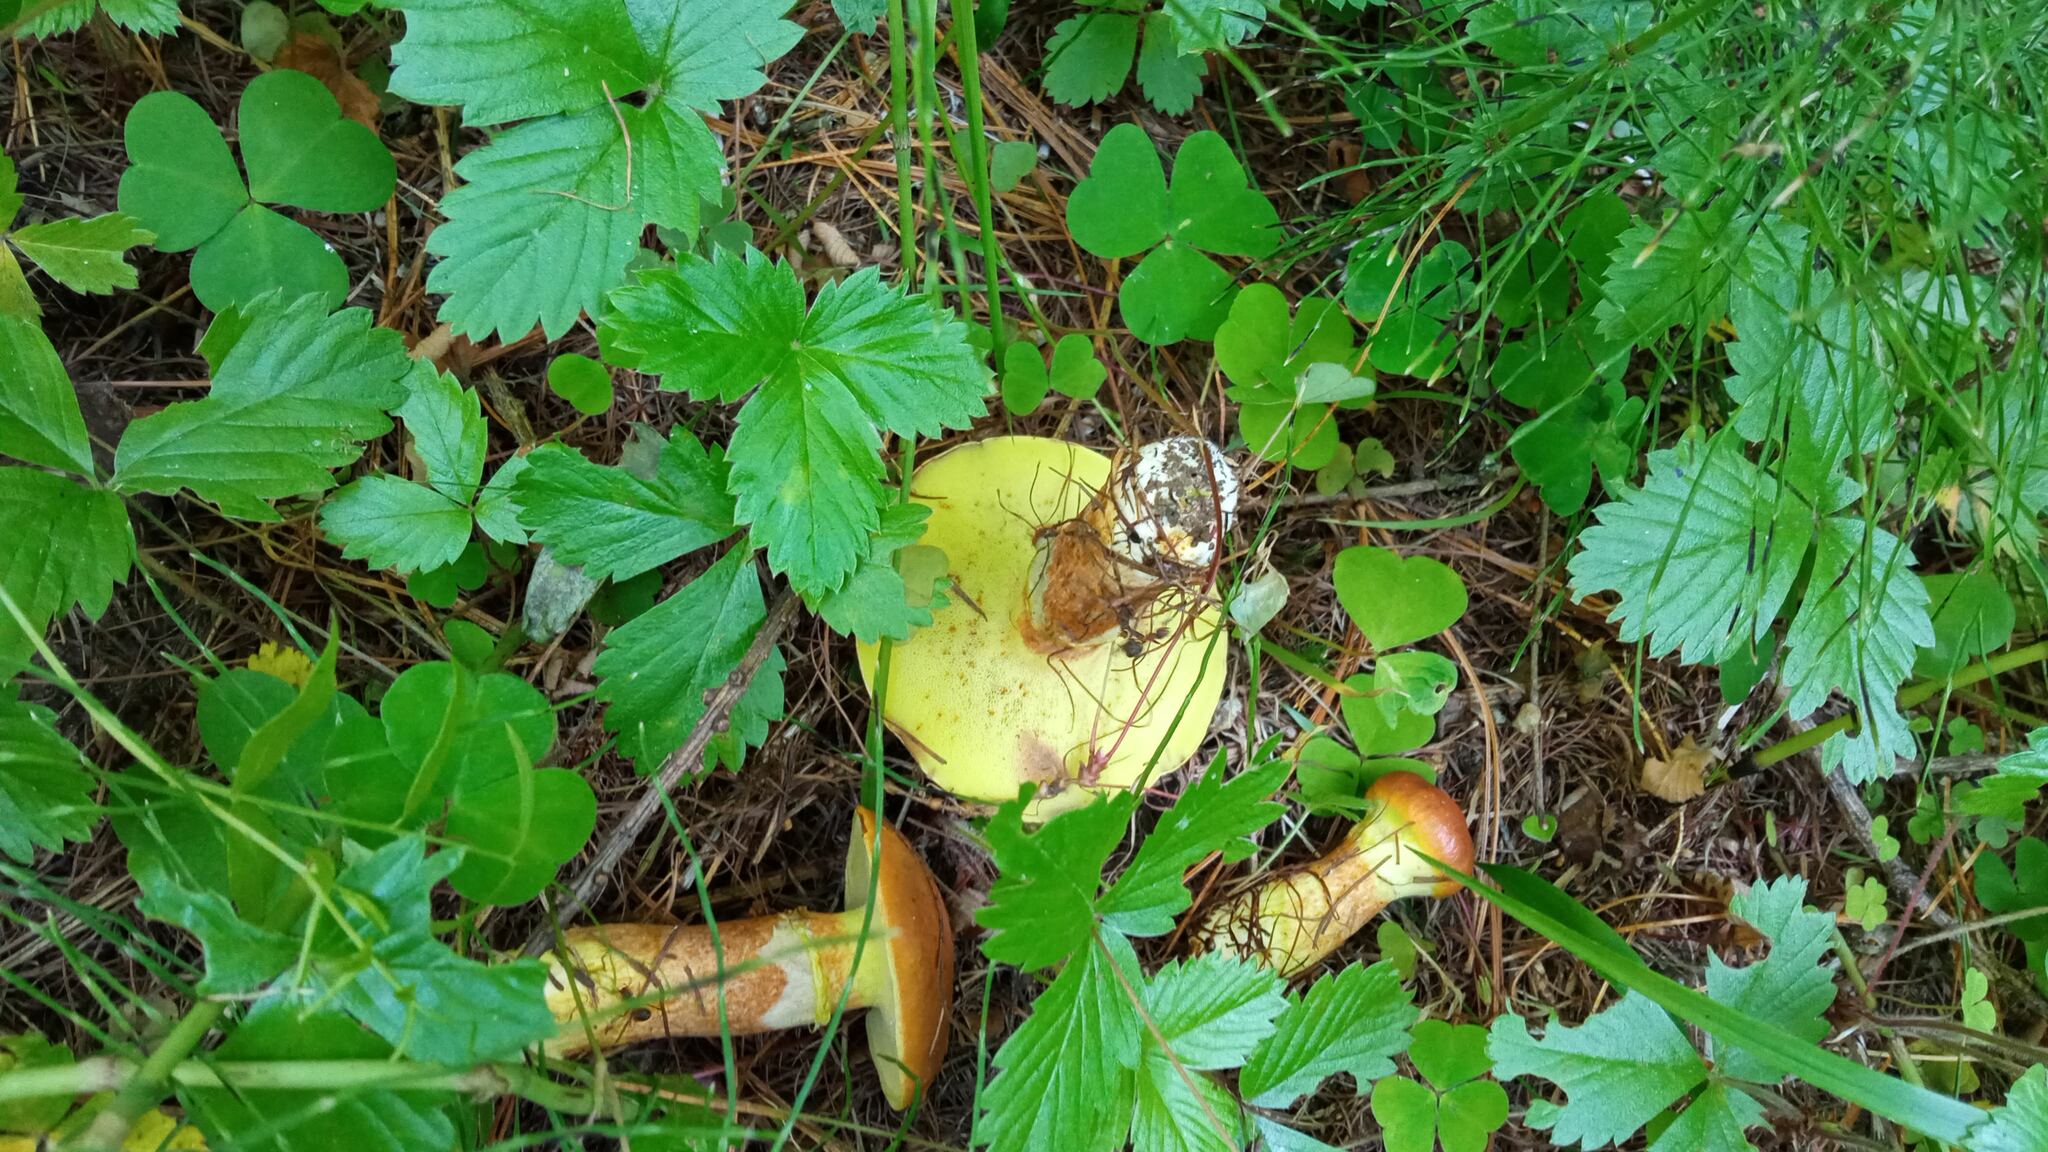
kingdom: Fungi
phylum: Basidiomycota
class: Agaricomycetes
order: Boletales
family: Suillaceae
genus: Suillus
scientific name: Suillus grevillei
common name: Larch bolete
